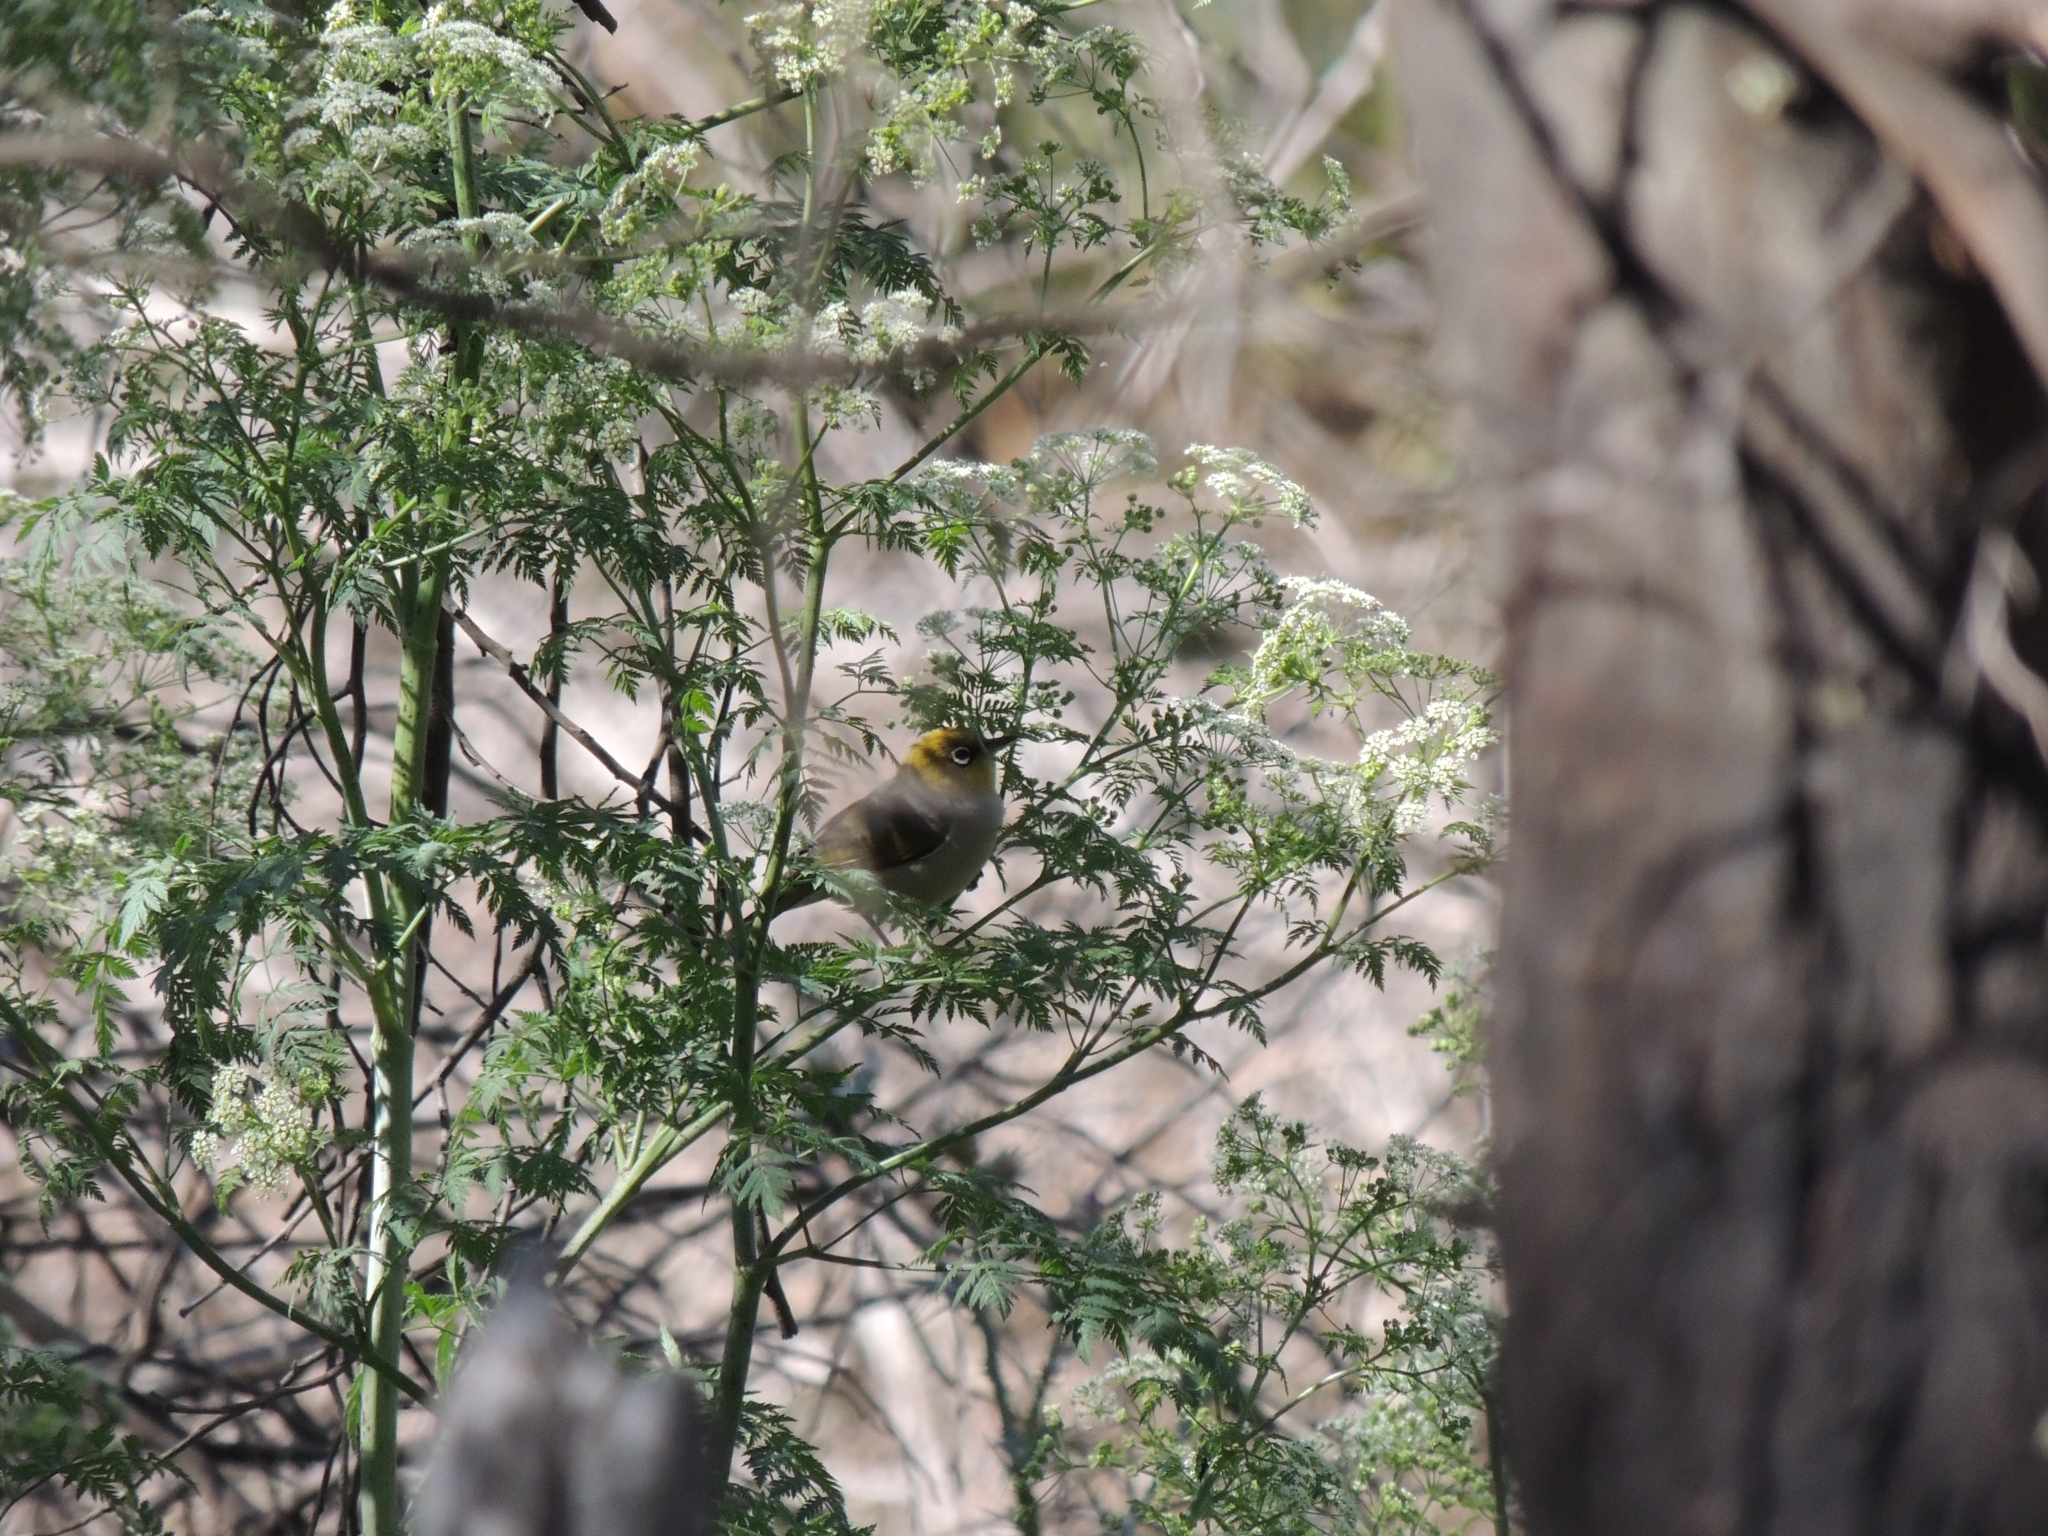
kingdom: Animalia
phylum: Chordata
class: Aves
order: Passeriformes
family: Zosteropidae
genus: Zosterops
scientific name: Zosterops lateralis
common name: Silvereye
